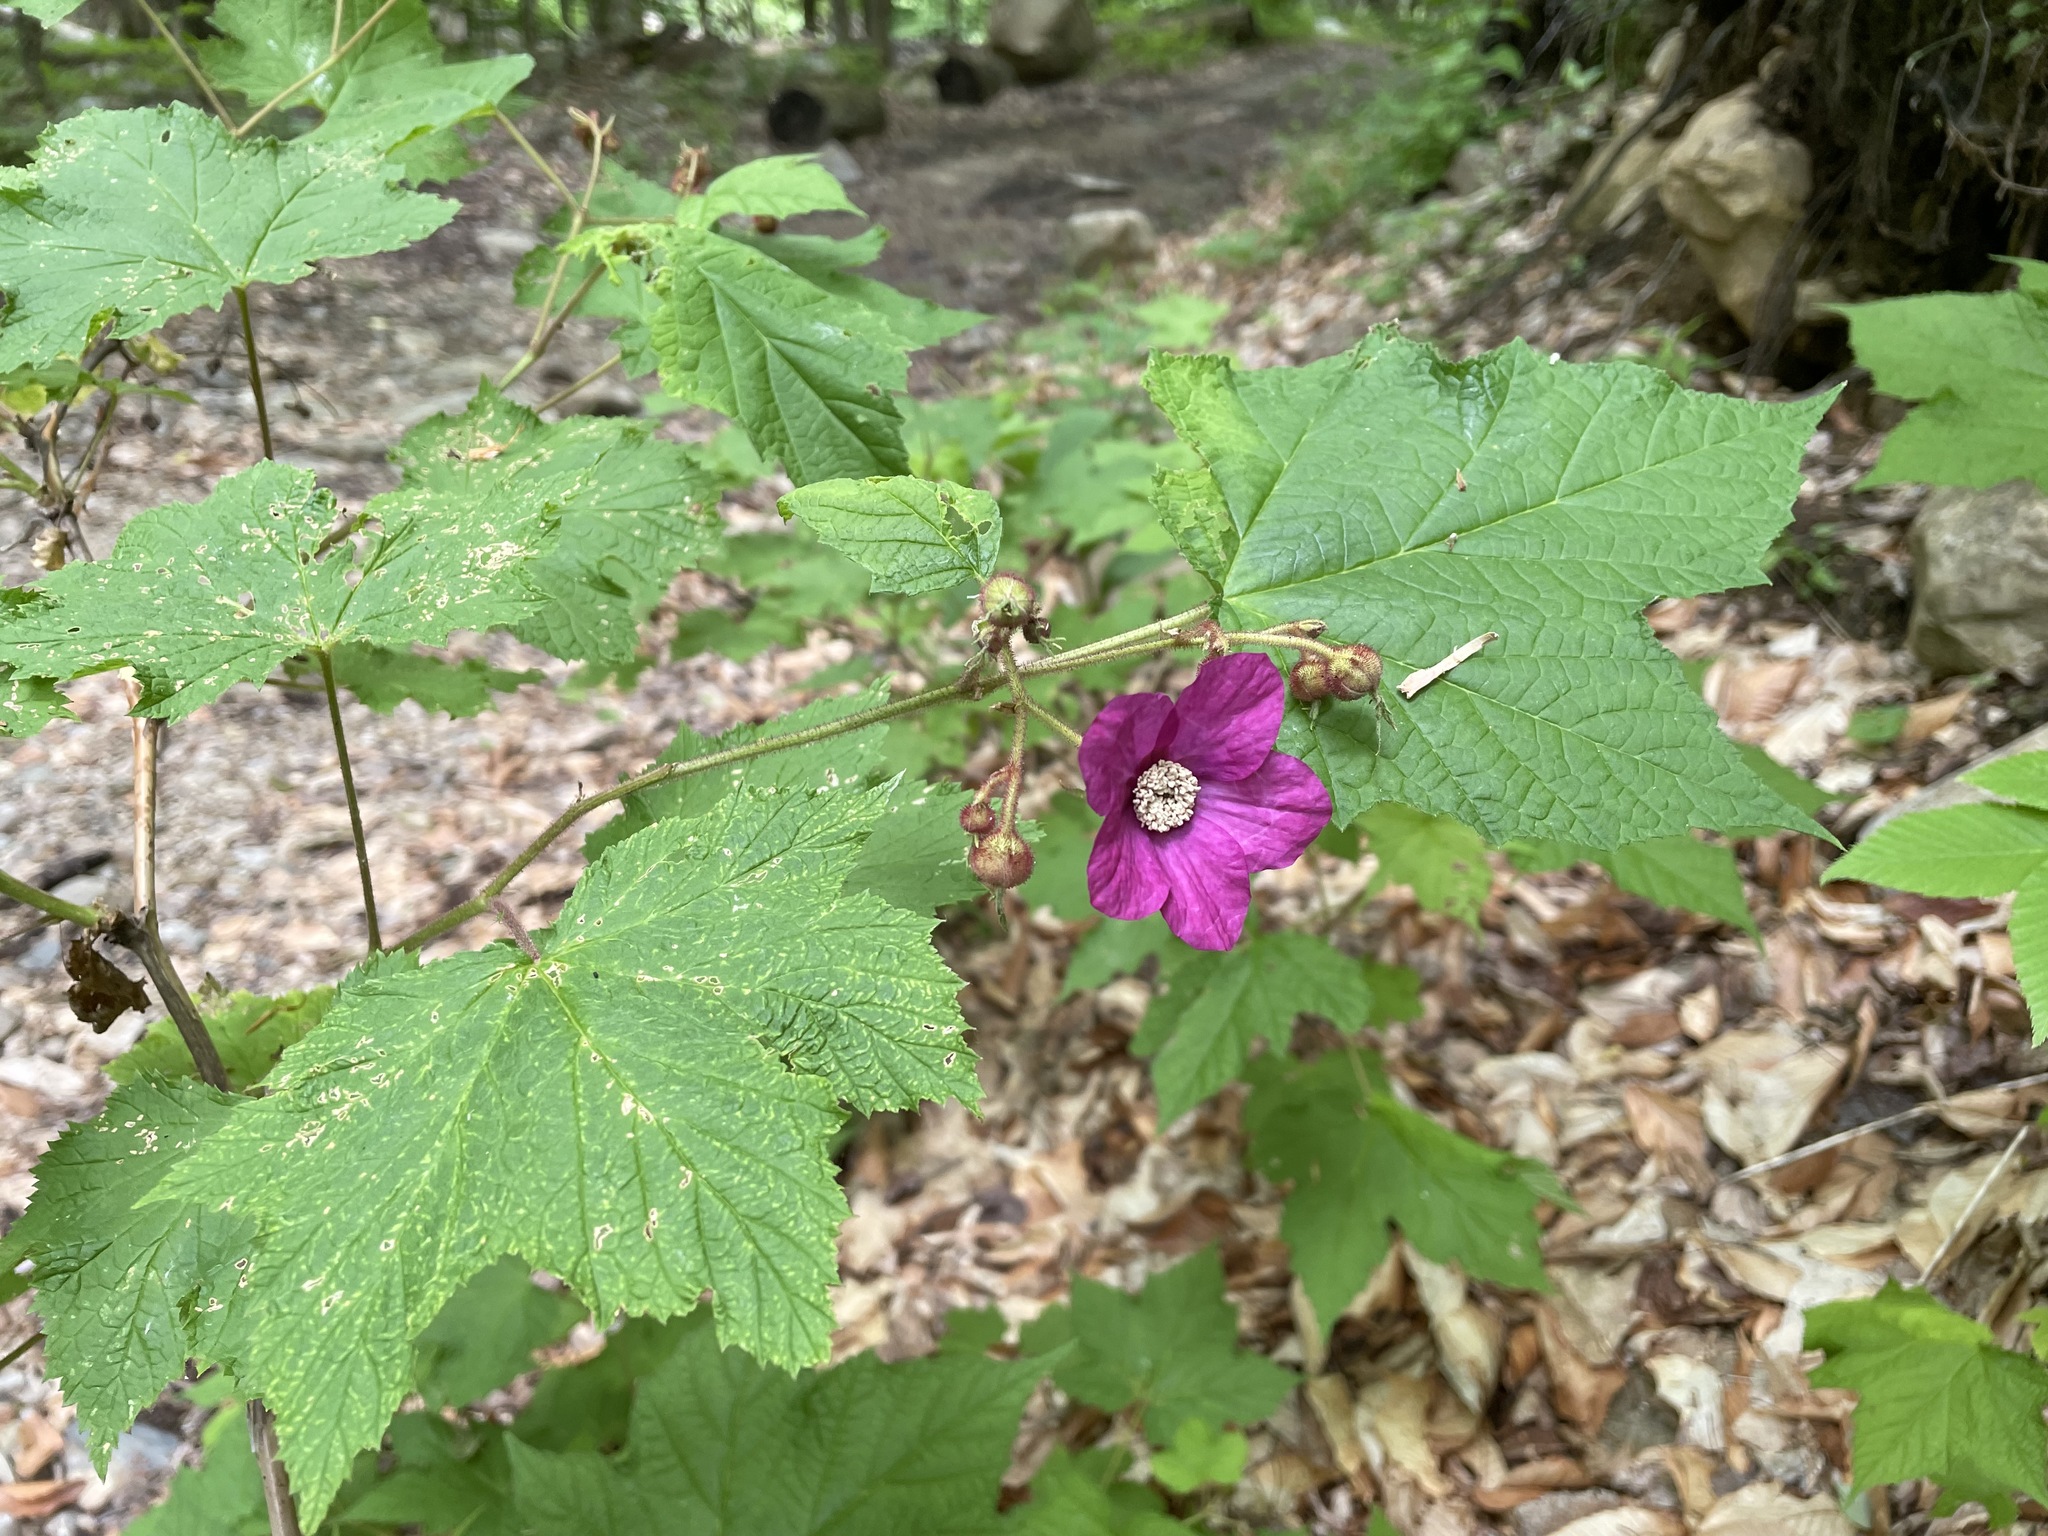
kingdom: Plantae
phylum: Tracheophyta
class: Magnoliopsida
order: Rosales
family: Rosaceae
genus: Rubus
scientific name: Rubus odoratus
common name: Purple-flowered raspberry
